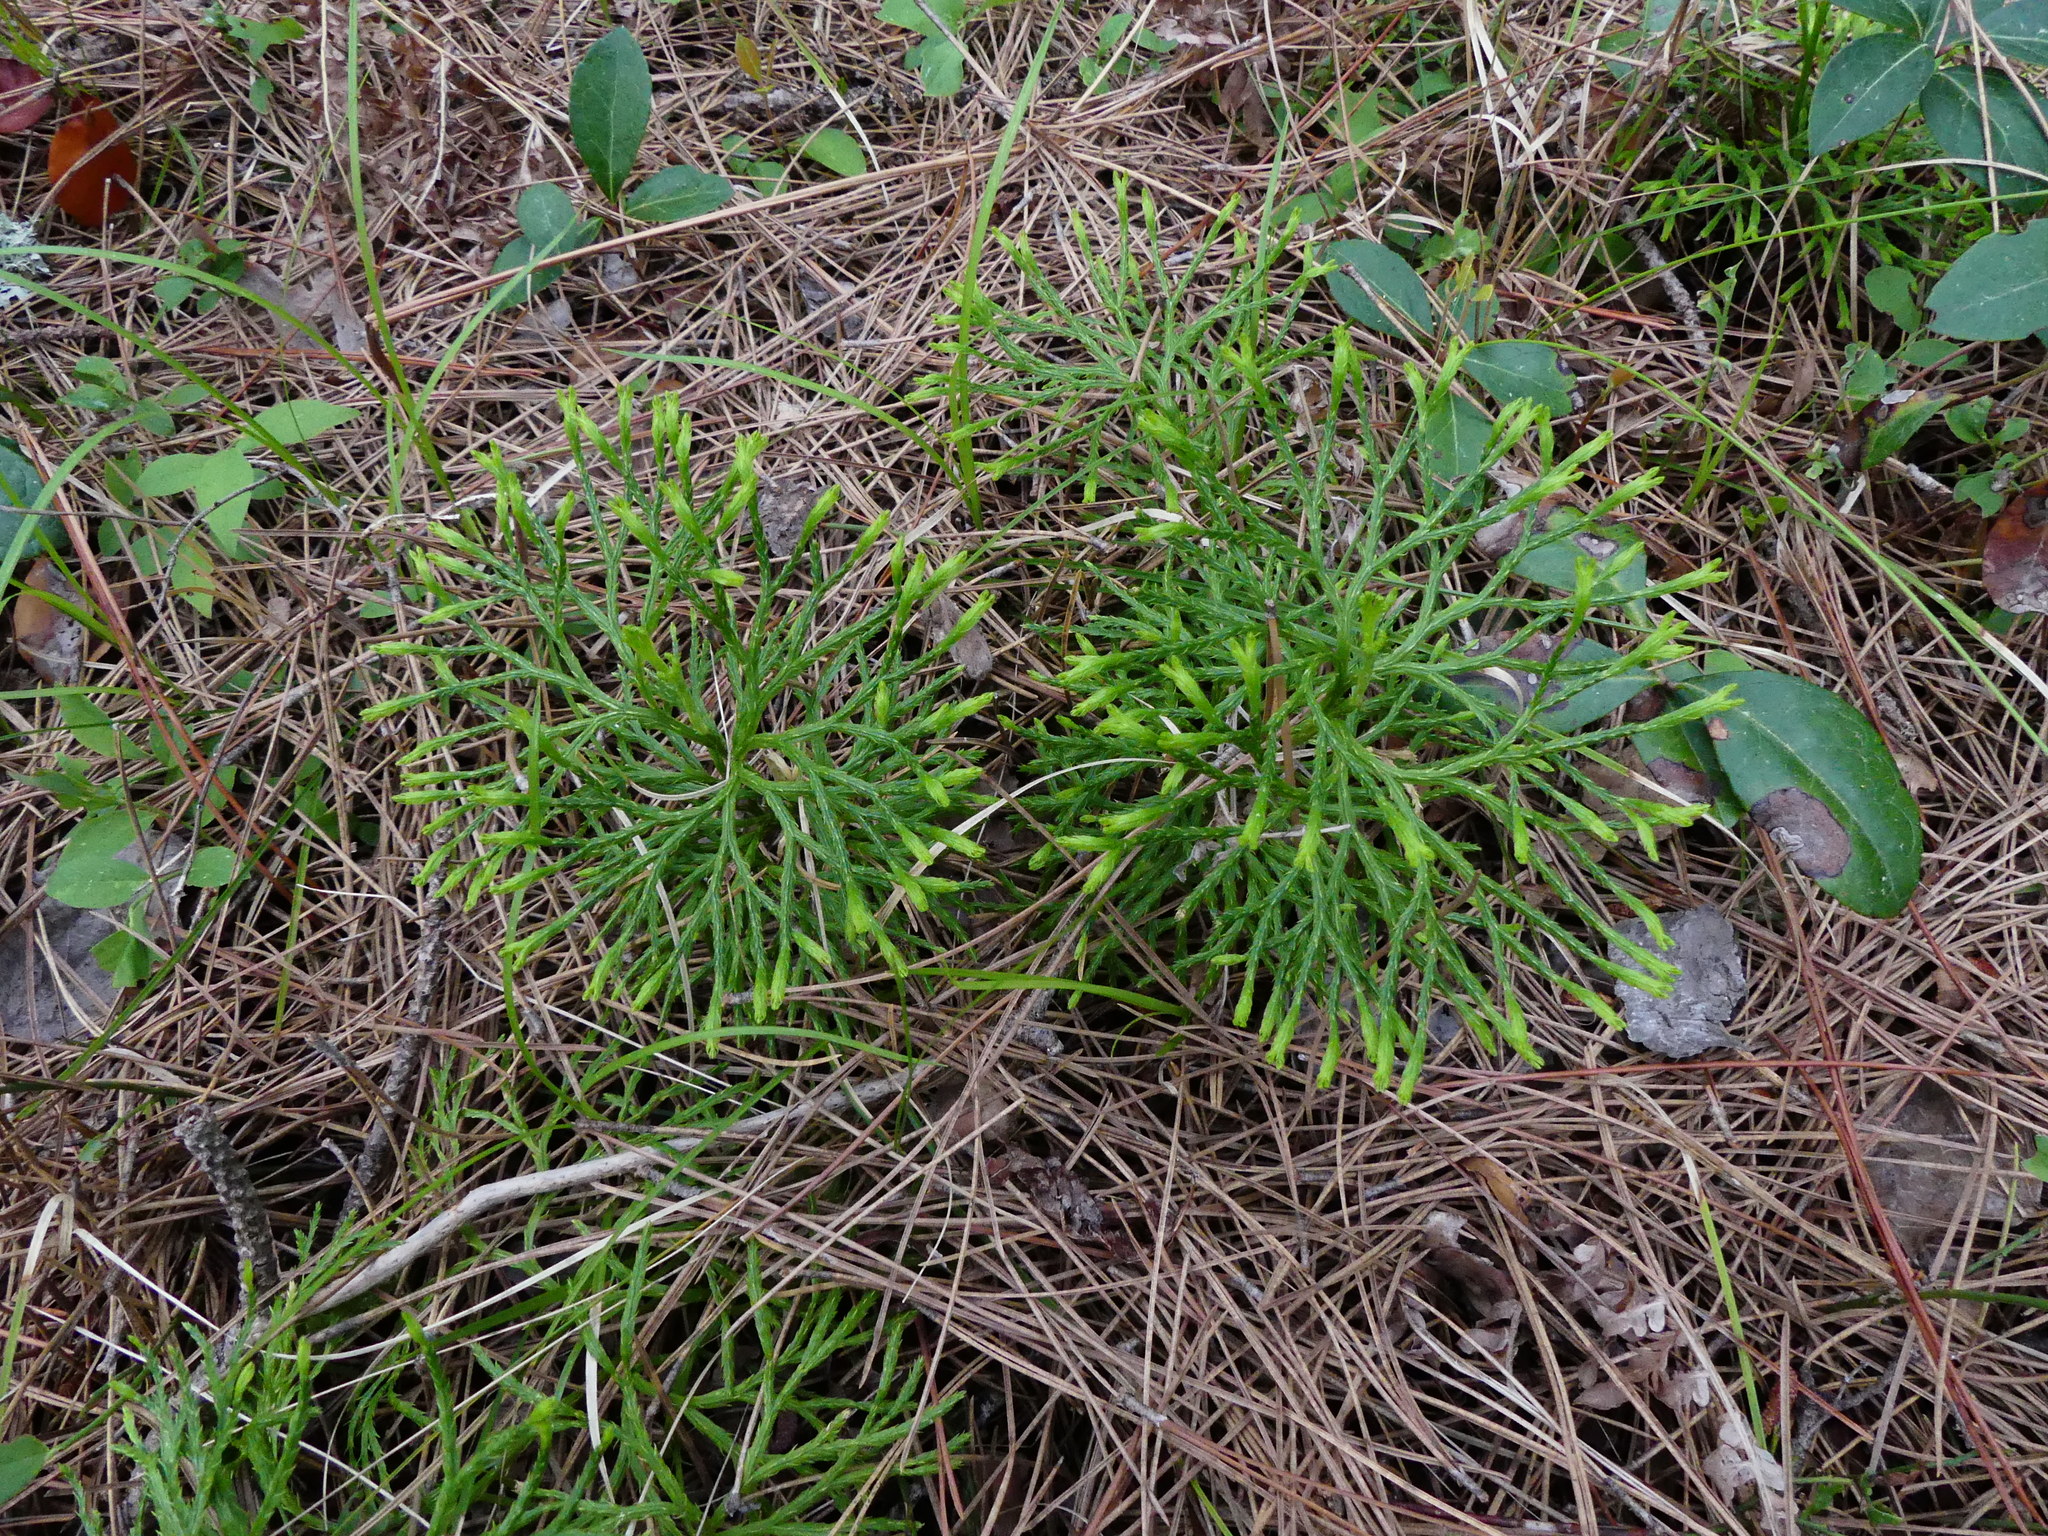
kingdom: Plantae
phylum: Tracheophyta
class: Lycopodiopsida
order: Lycopodiales
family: Lycopodiaceae
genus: Diphasiastrum
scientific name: Diphasiastrum digitatum
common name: Southern running-pine
